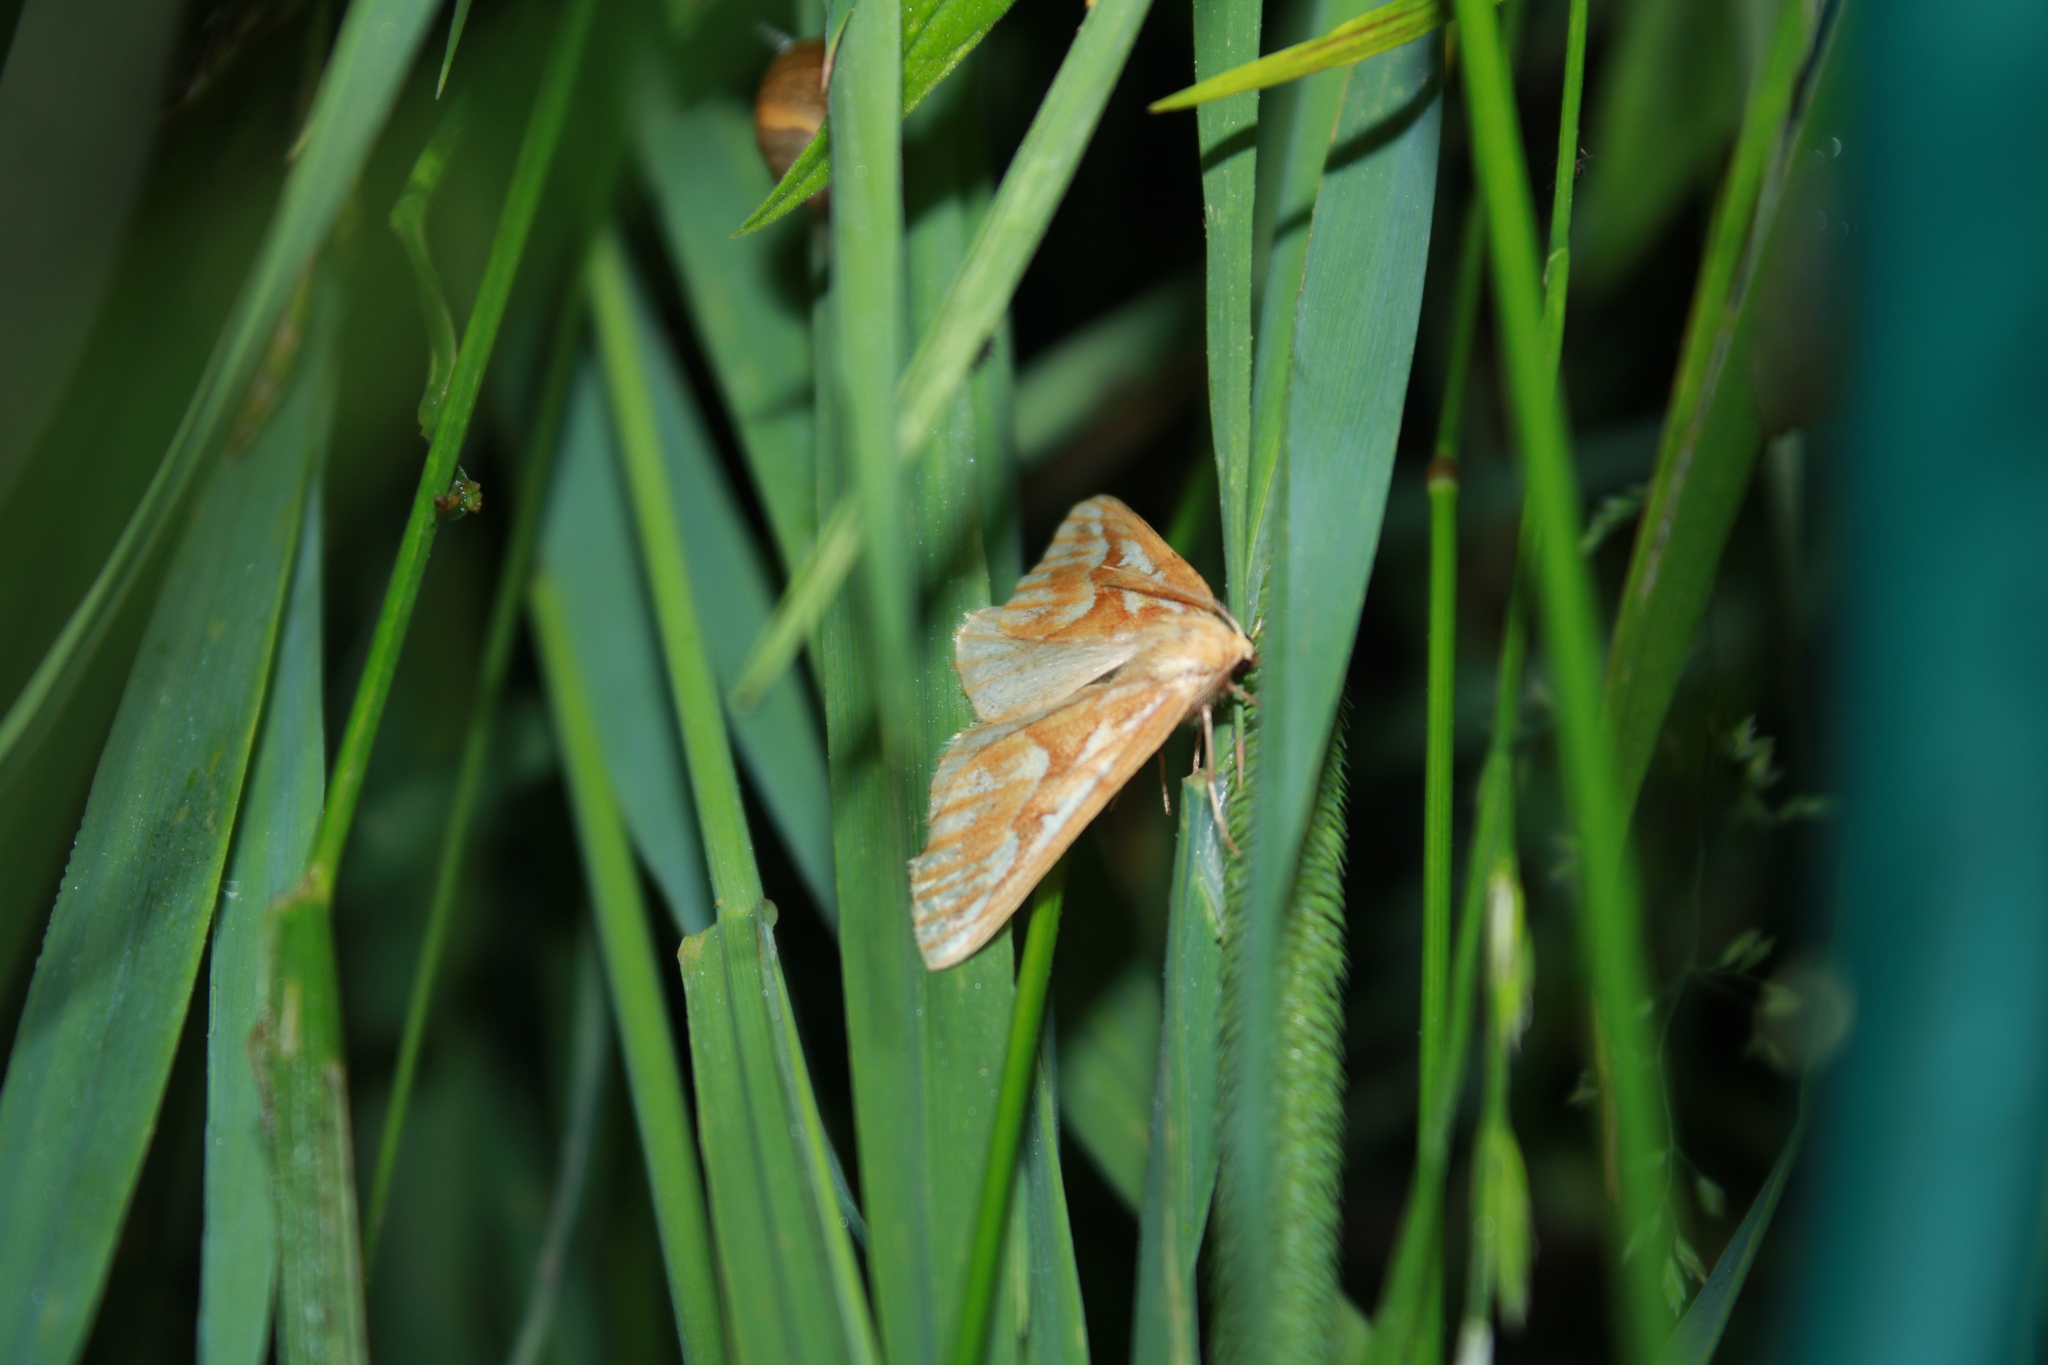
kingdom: Animalia
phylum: Arthropoda
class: Insecta
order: Lepidoptera
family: Geometridae
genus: Caripeta
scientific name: Caripeta piniata
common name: Northern pine looper moth
